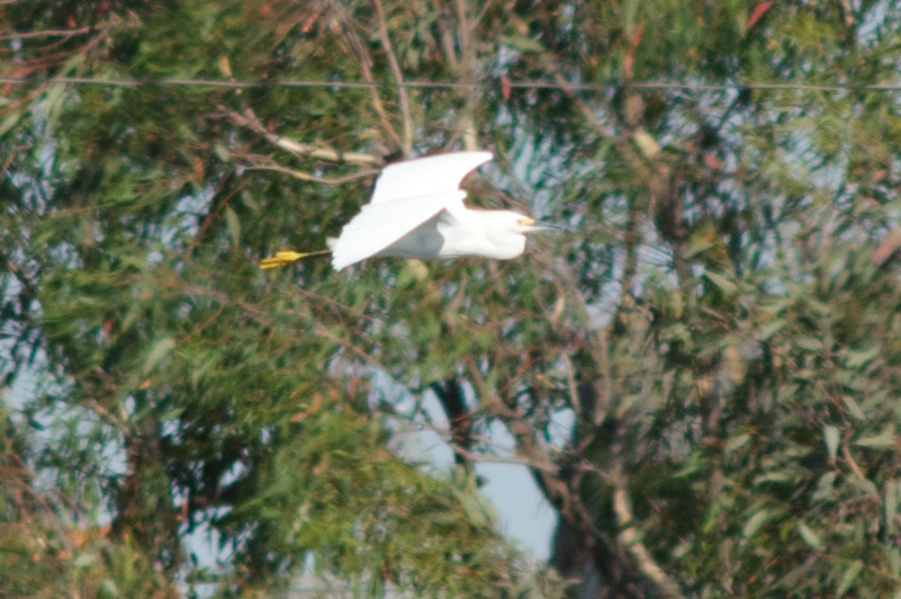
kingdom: Animalia
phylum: Chordata
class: Aves
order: Pelecaniformes
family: Ardeidae
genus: Egretta
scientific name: Egretta thula
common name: Snowy egret
